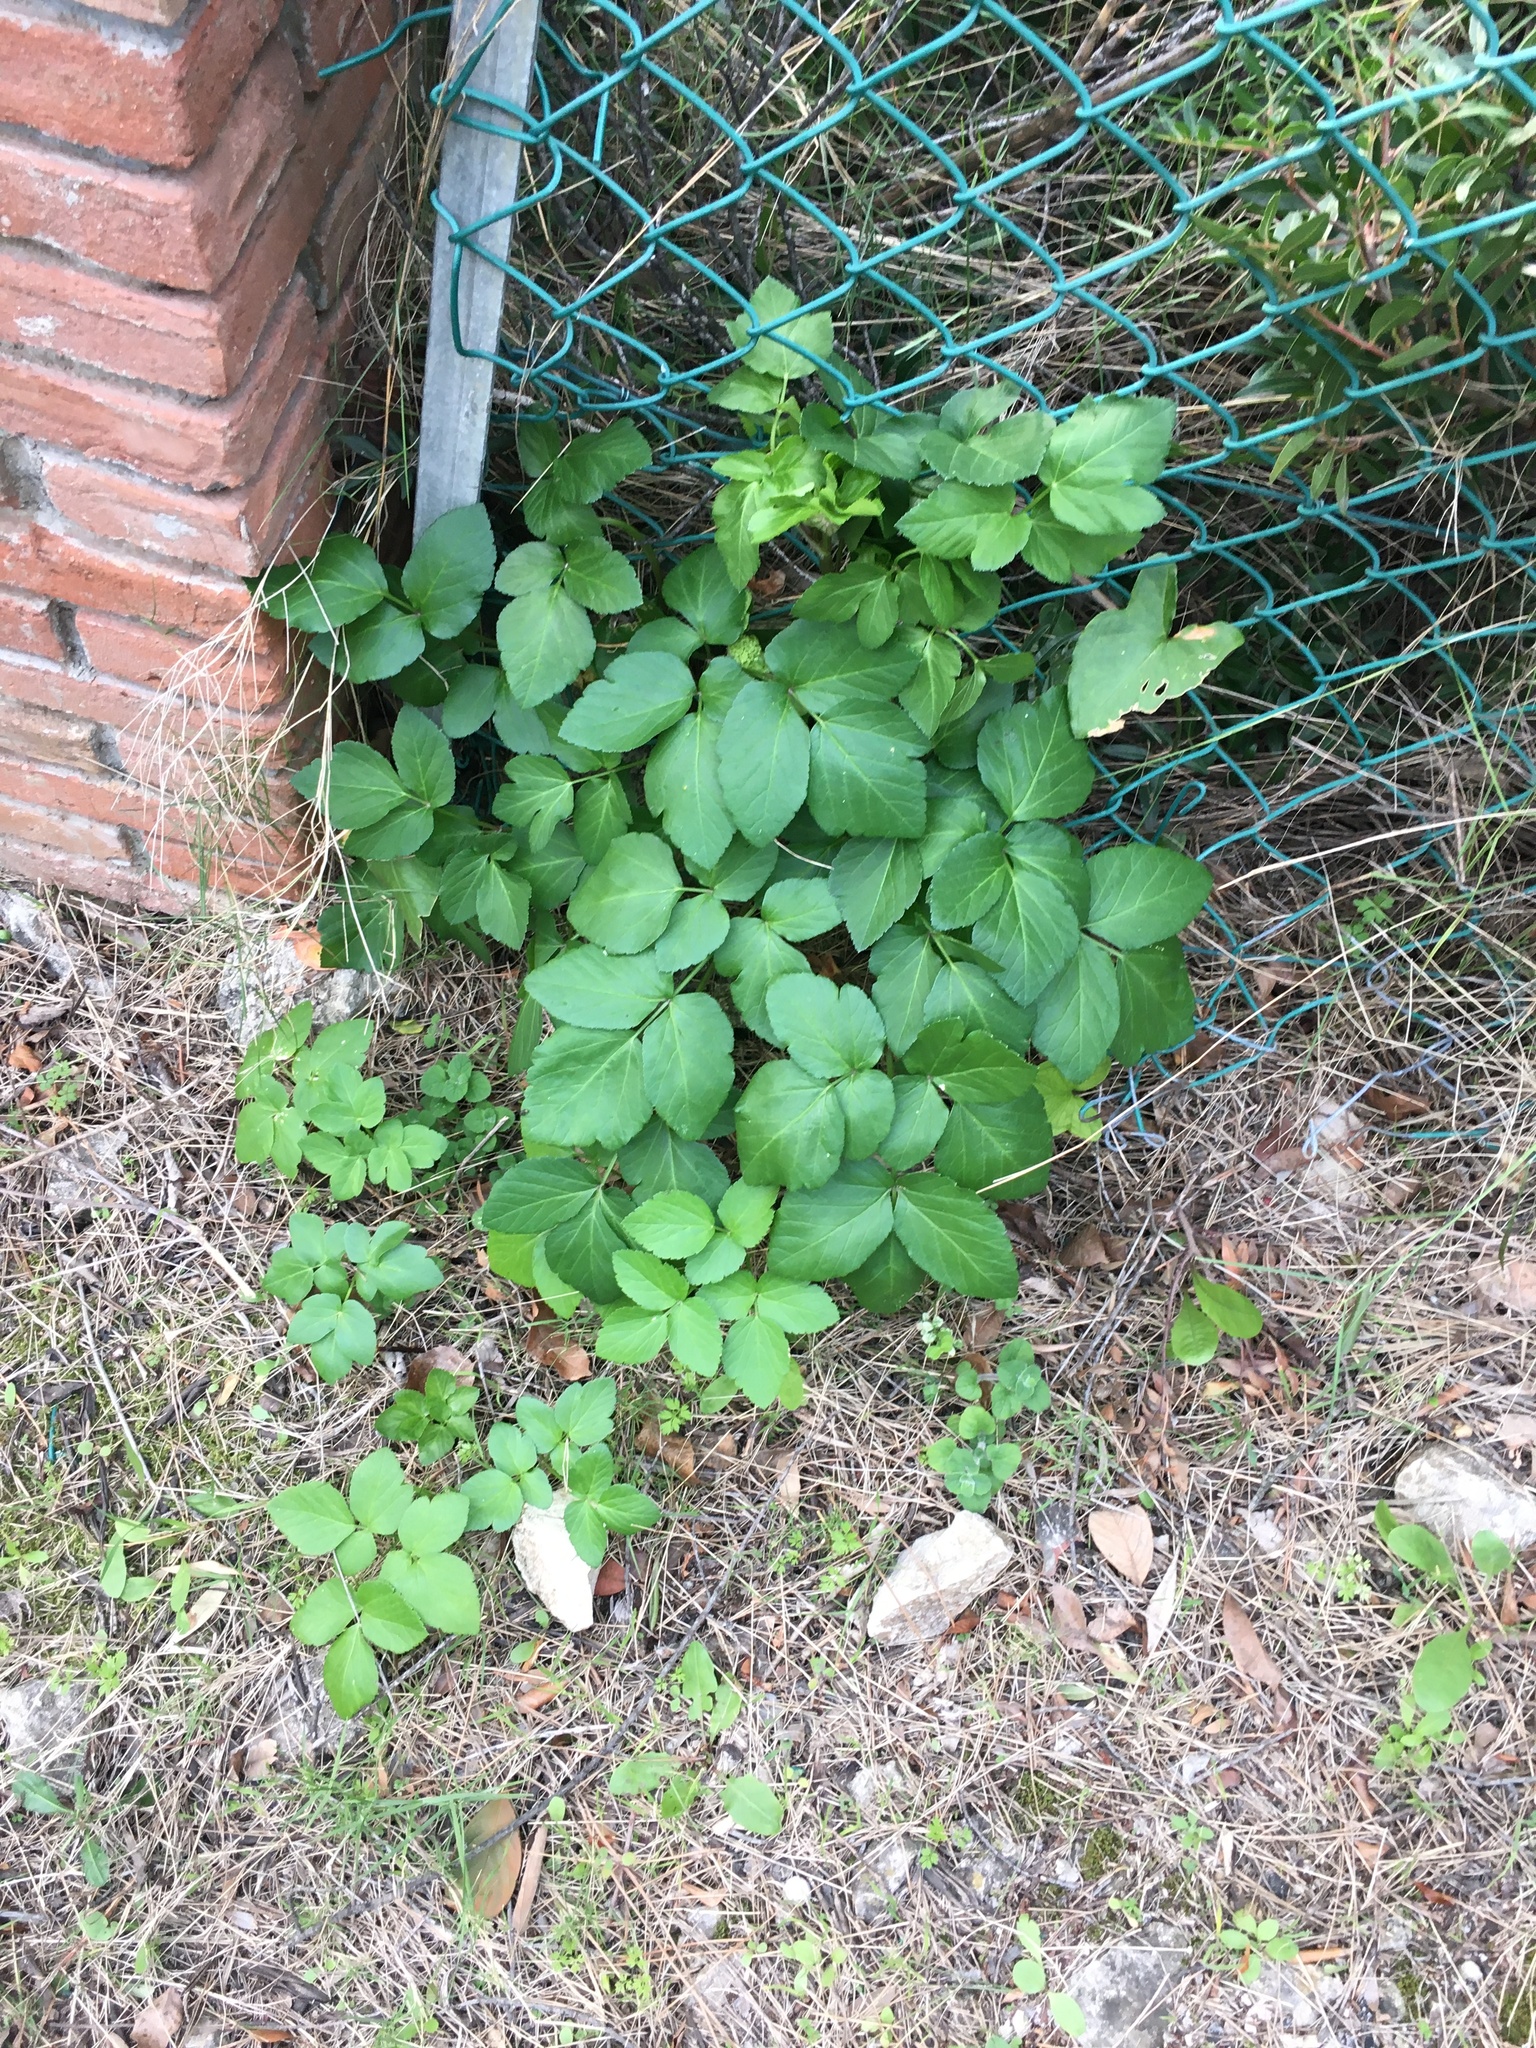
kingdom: Plantae
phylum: Tracheophyta
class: Magnoliopsida
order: Apiales
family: Apiaceae
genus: Aegopodium
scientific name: Aegopodium podagraria
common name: Ground-elder
